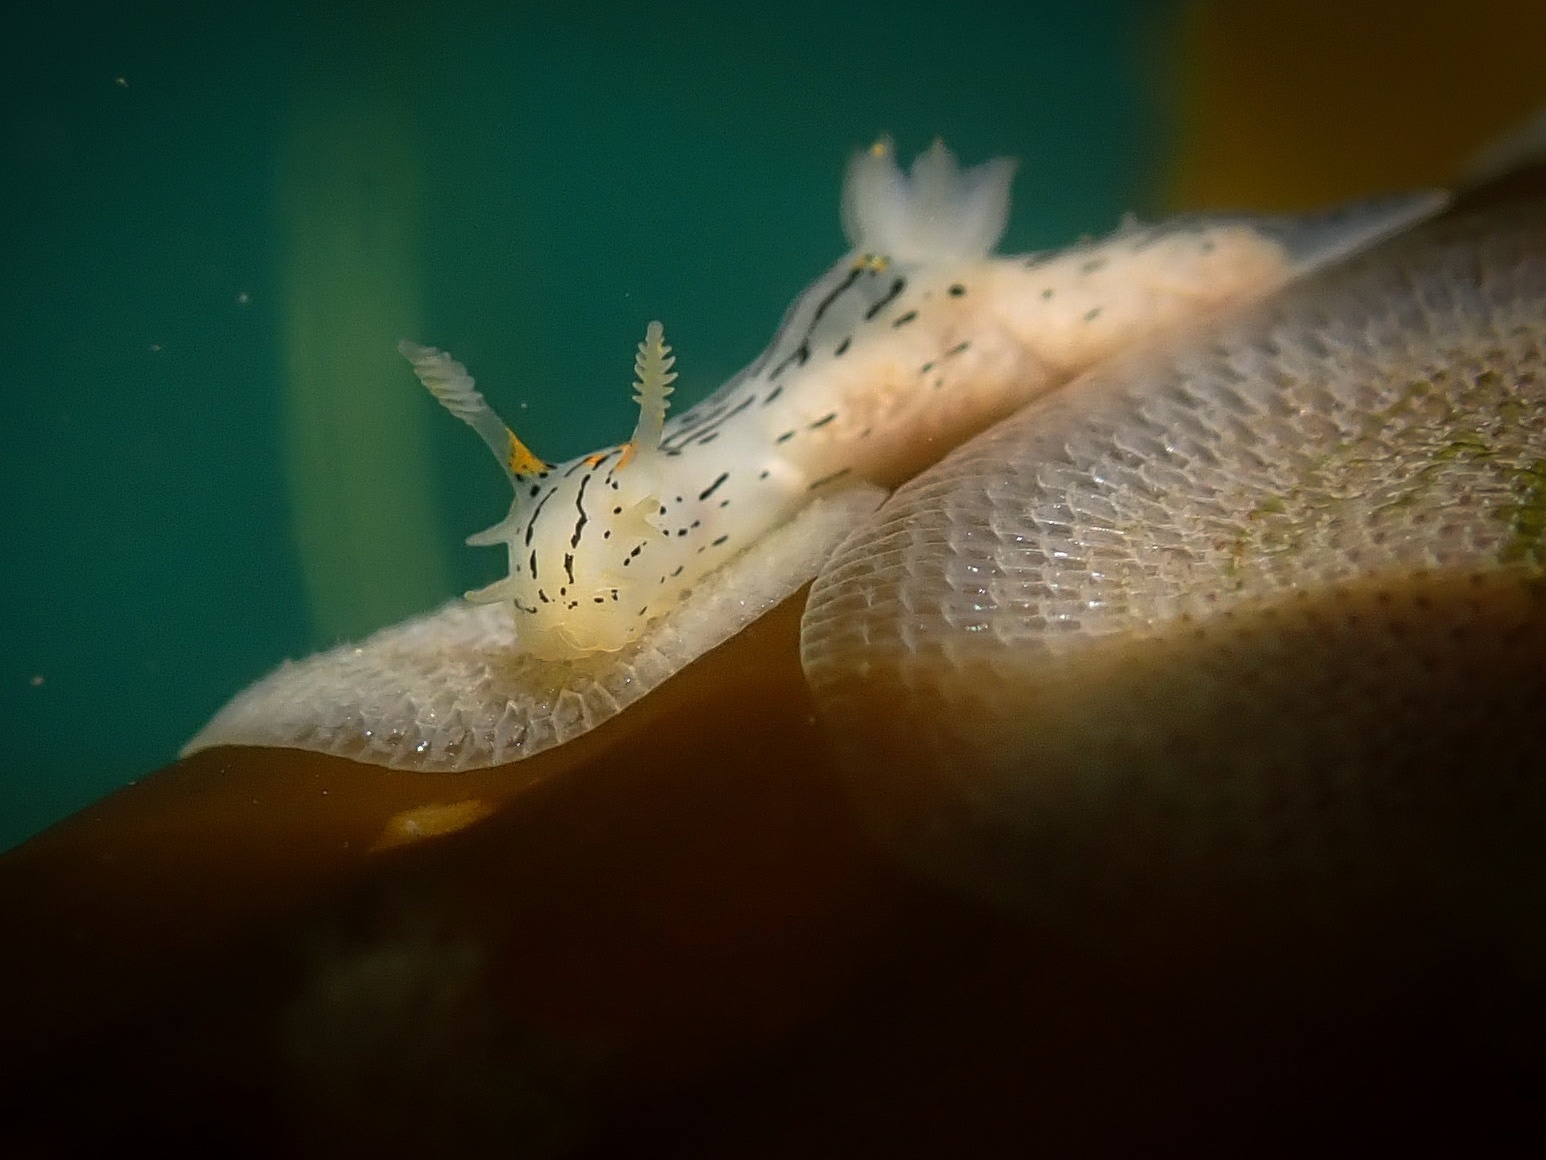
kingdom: Animalia
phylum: Mollusca
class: Gastropoda
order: Nudibranchia
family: Polyceridae
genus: Polycera
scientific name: Polycera atra
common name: Orange-spike polycera
